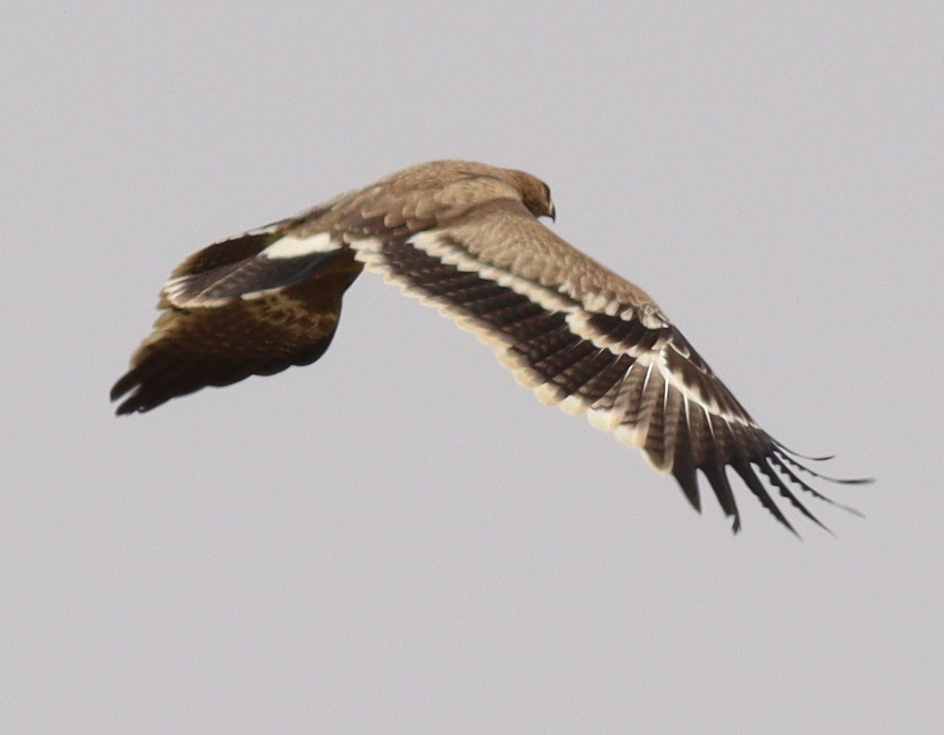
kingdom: Animalia
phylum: Chordata
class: Aves
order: Accipitriformes
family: Accipitridae
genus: Aquila
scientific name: Aquila nipalensis
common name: Steppe eagle
